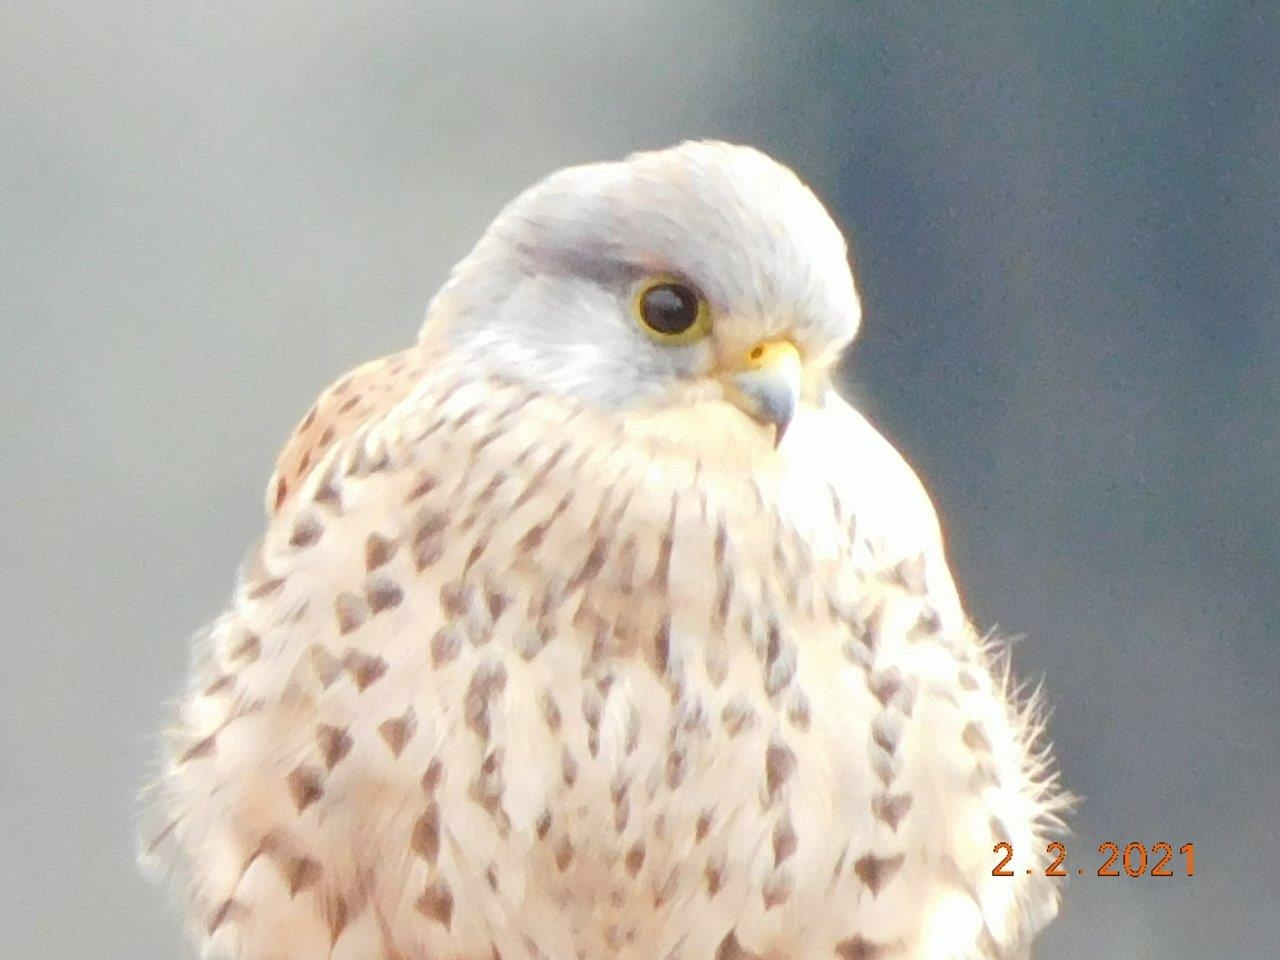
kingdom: Animalia
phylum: Chordata
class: Aves
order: Falconiformes
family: Falconidae
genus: Falco
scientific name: Falco tinnunculus
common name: Common kestrel
